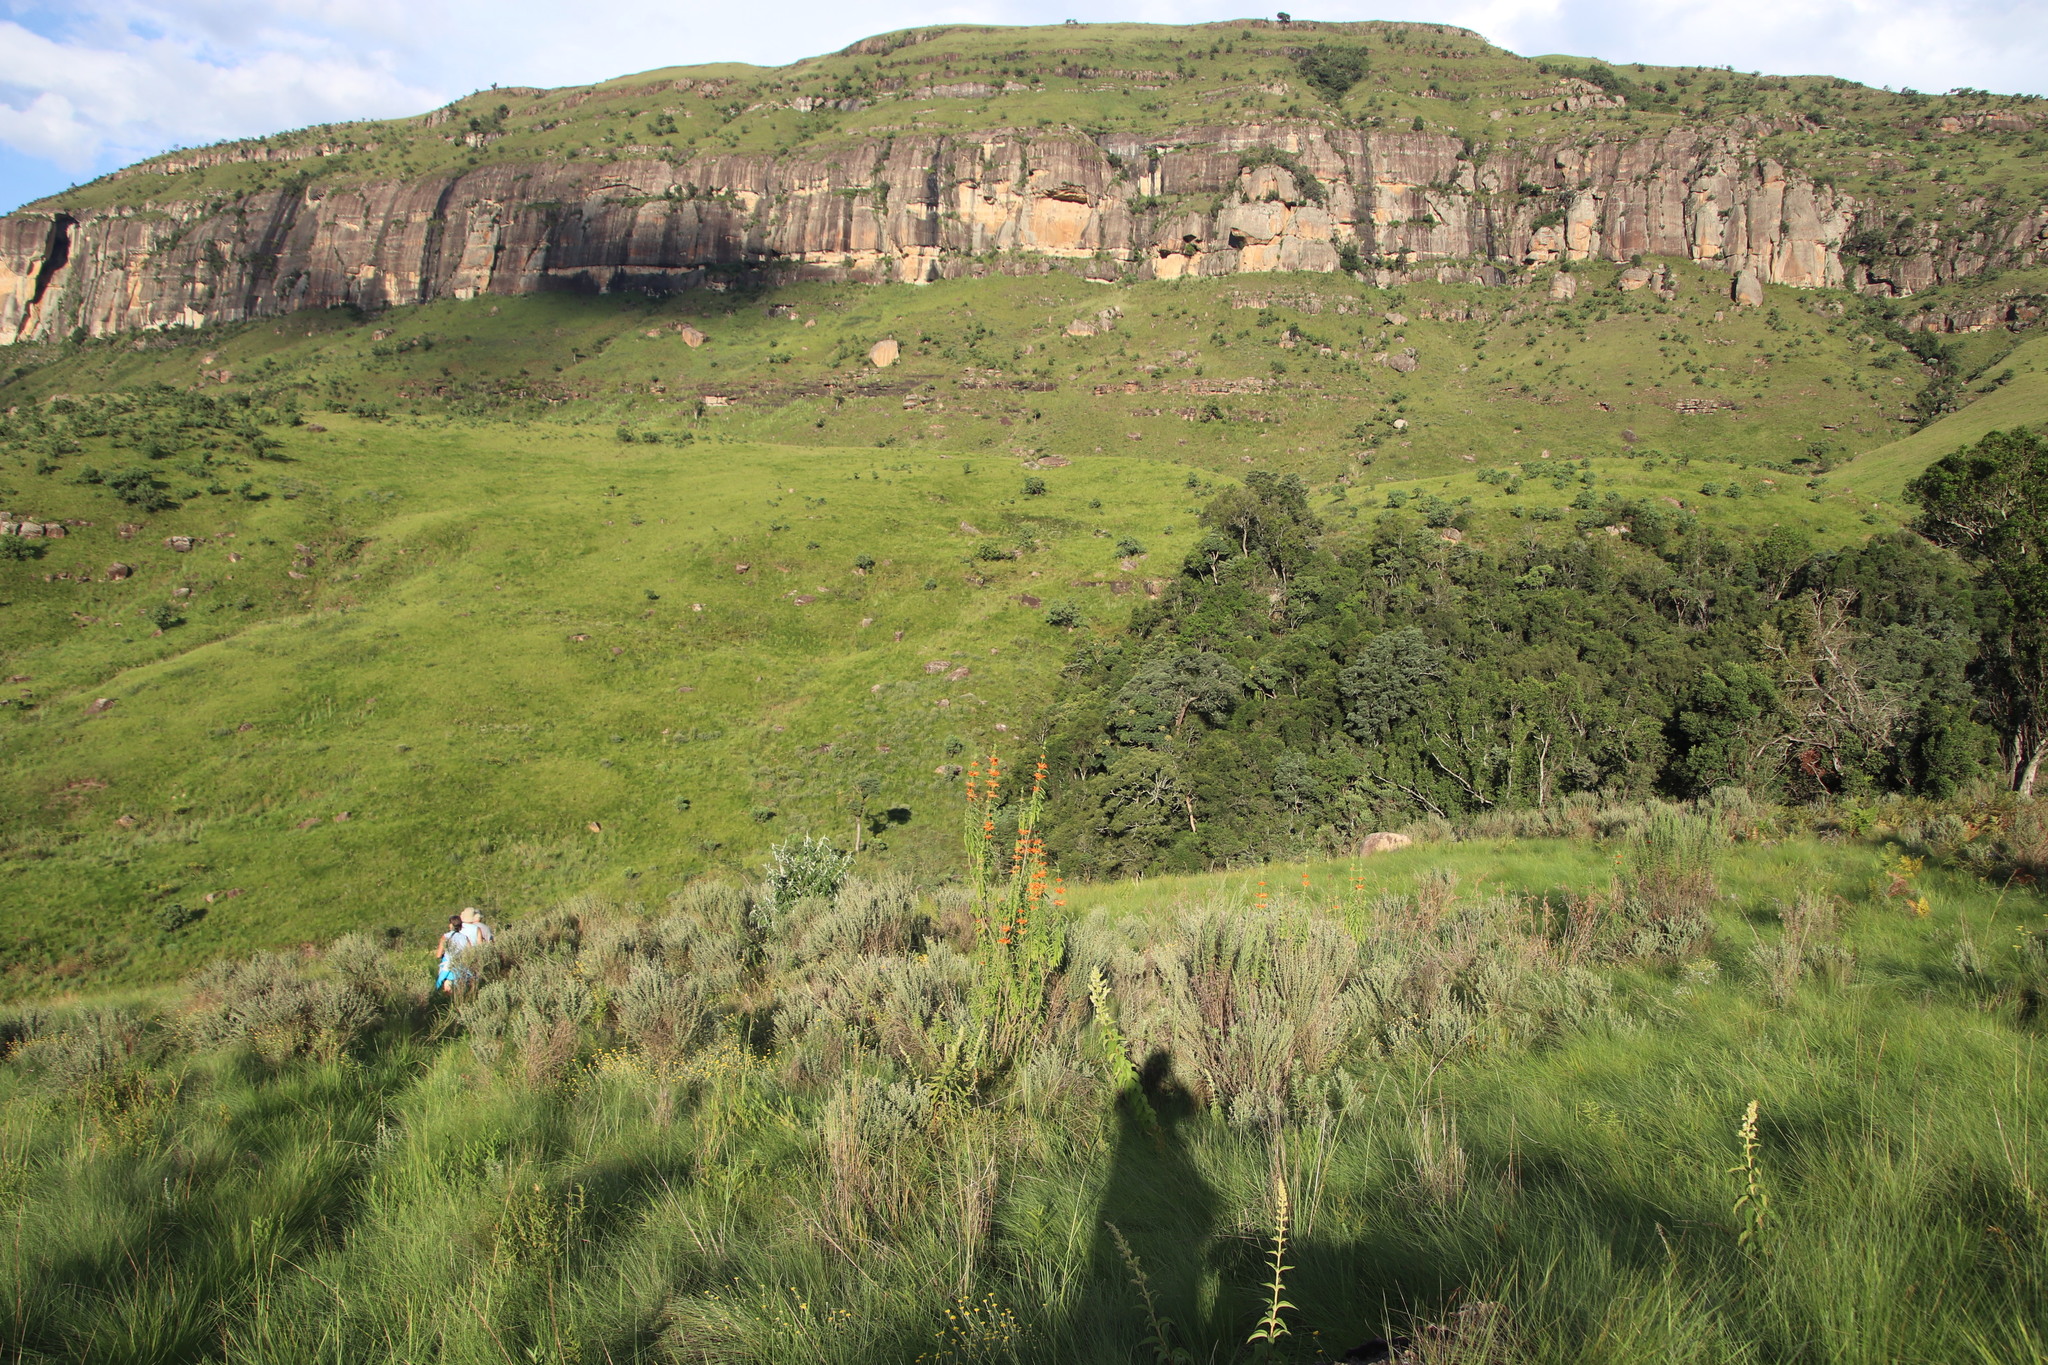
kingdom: Plantae
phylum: Tracheophyta
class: Magnoliopsida
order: Lamiales
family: Lamiaceae
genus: Leonotis
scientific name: Leonotis leonurus
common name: Lion's ear
